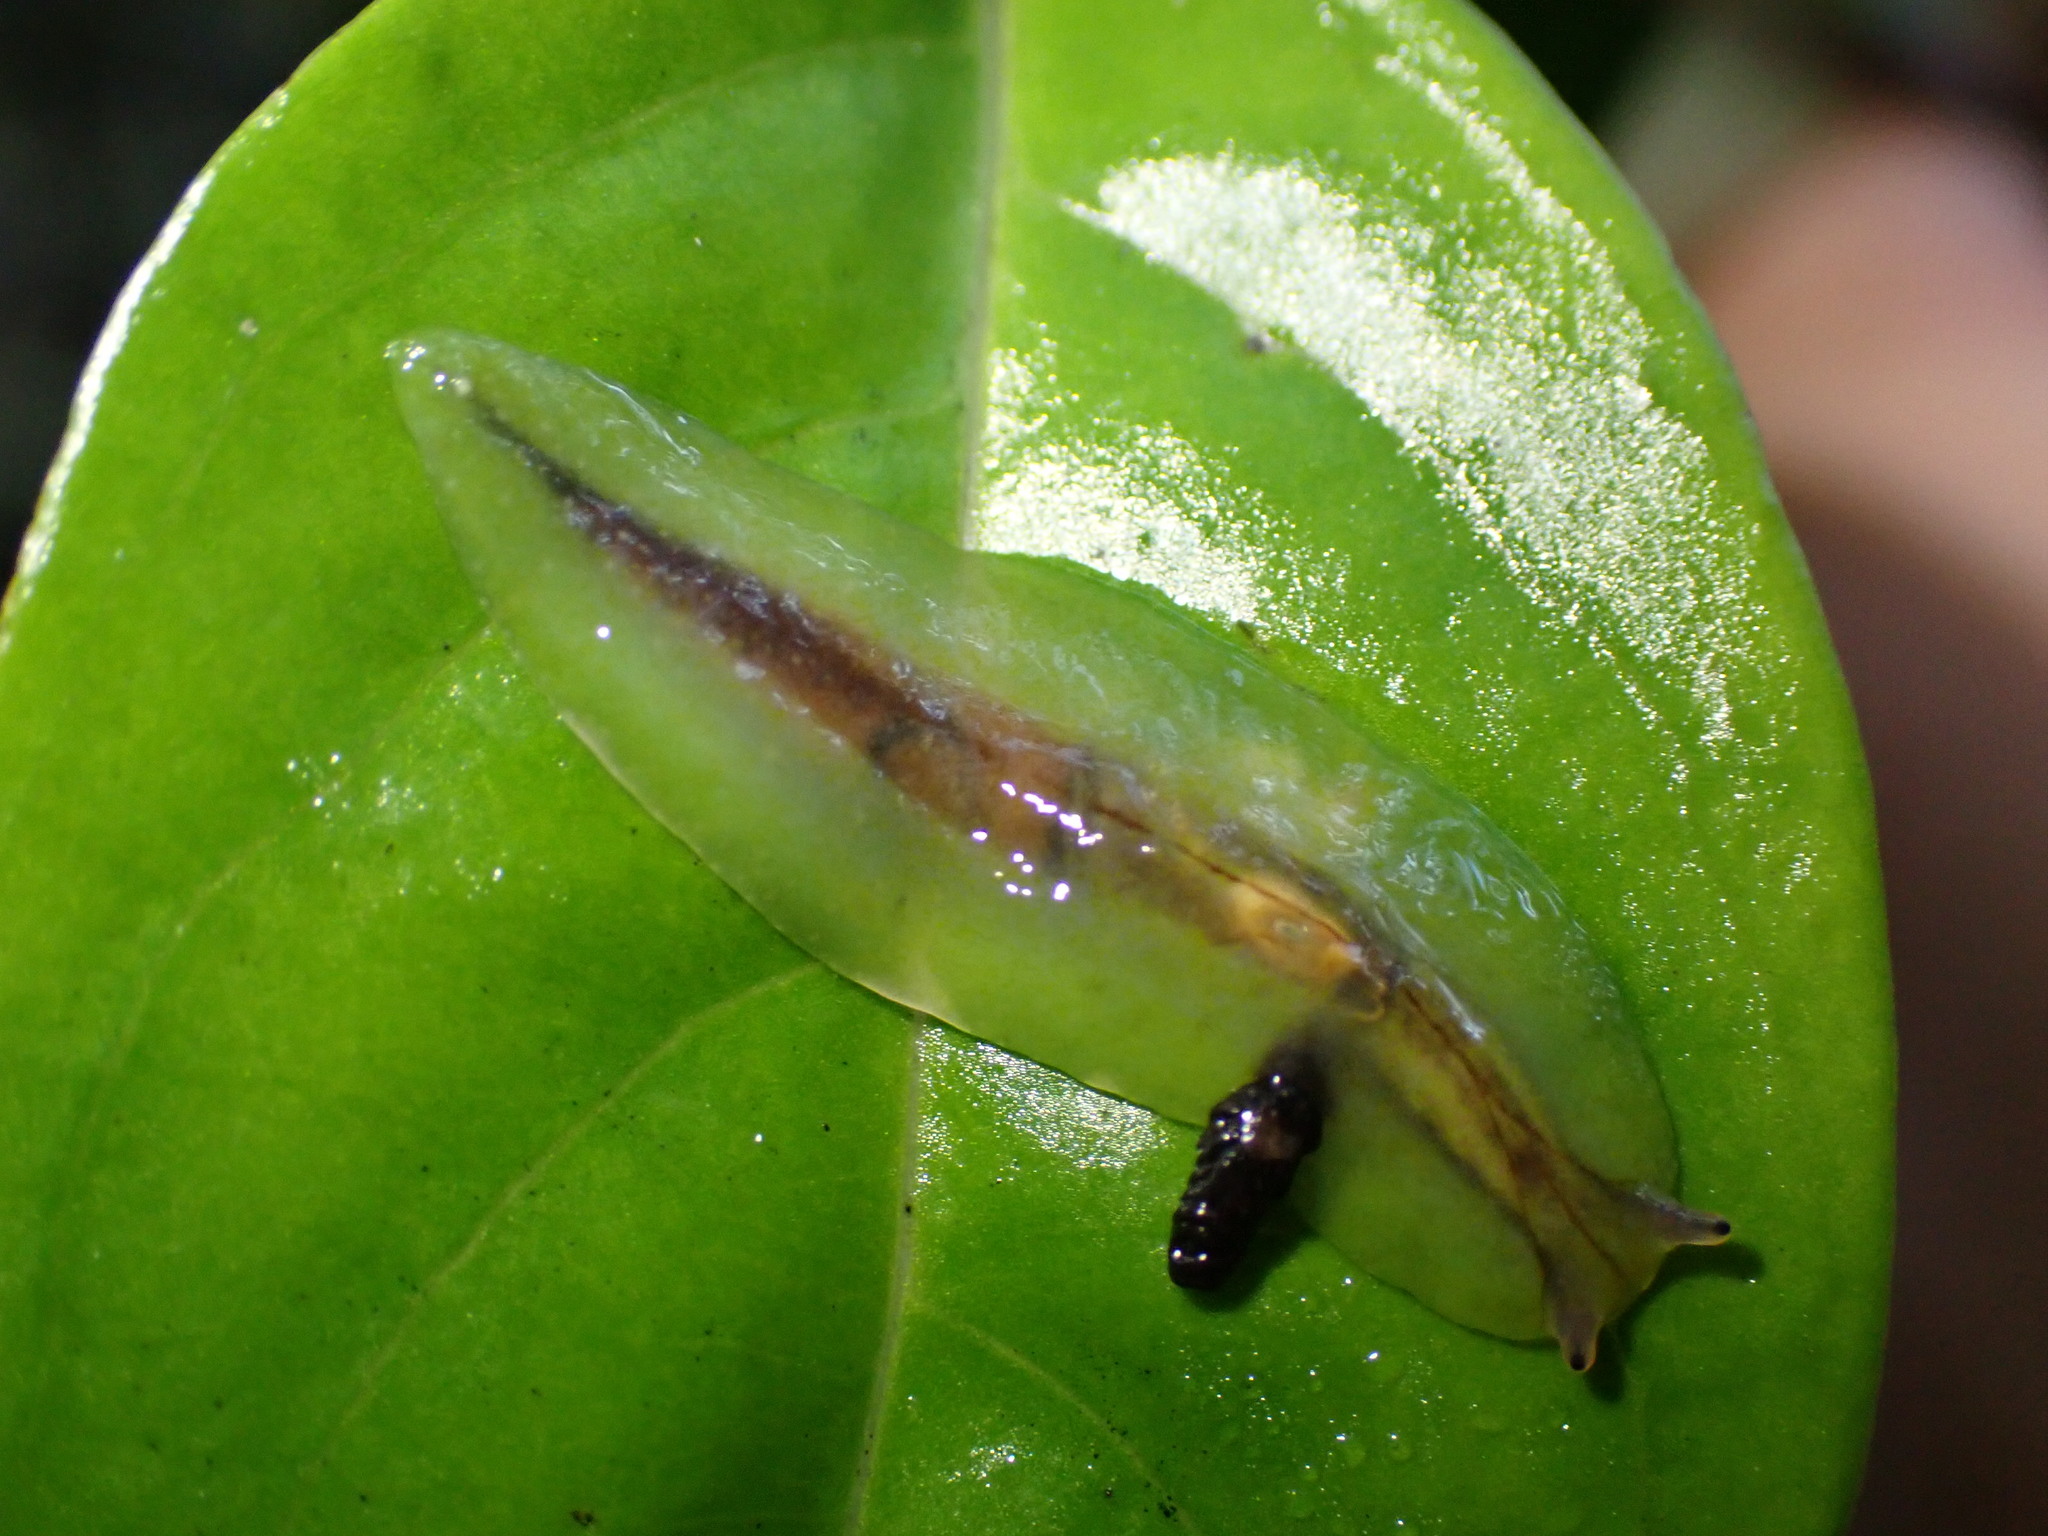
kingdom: Animalia
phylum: Mollusca
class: Gastropoda
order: Stylommatophora
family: Athoracophoridae
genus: Athoracophorus
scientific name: Athoracophorus
